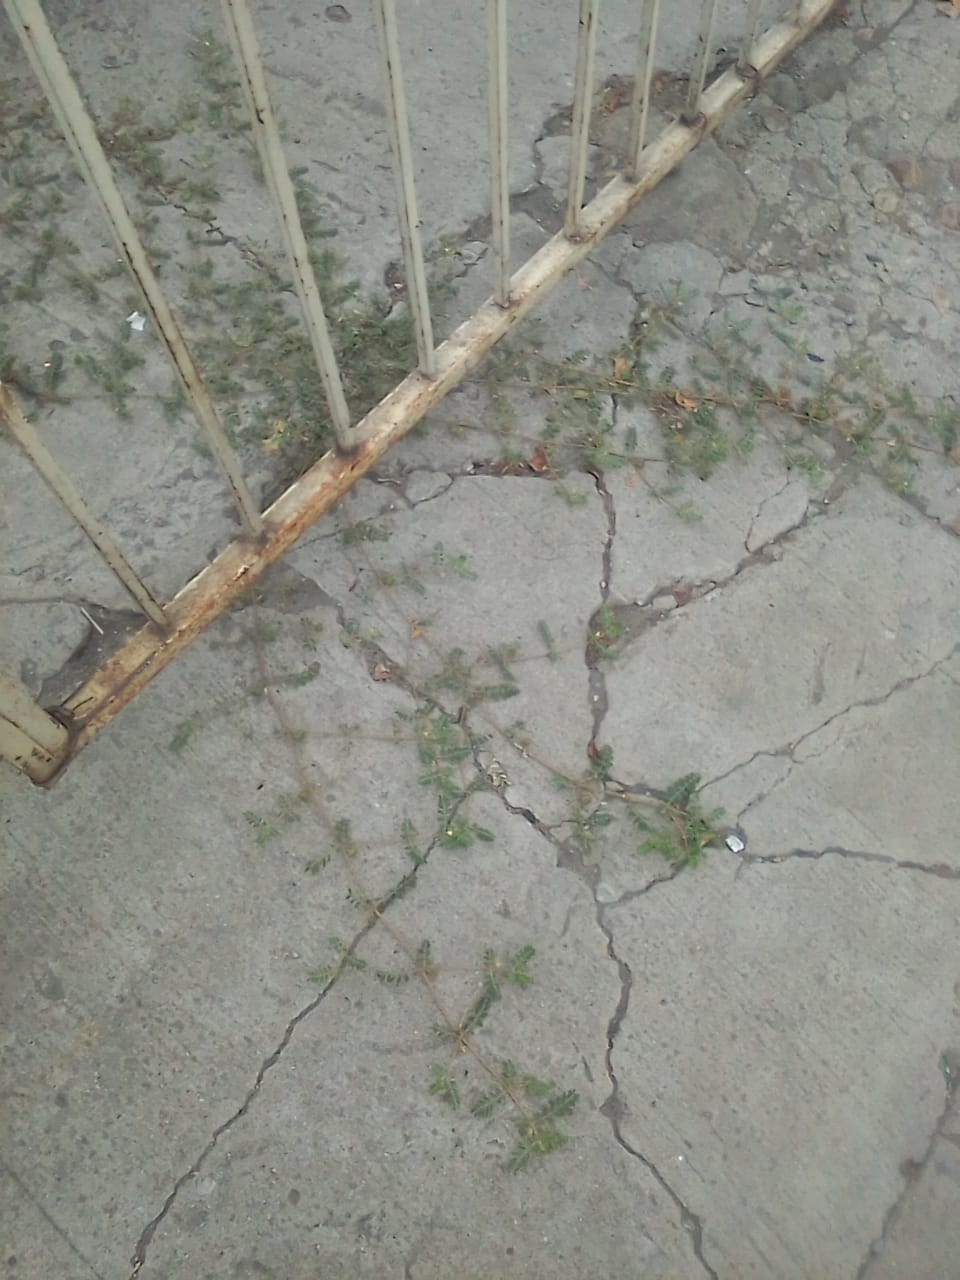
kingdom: Plantae
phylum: Tracheophyta
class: Magnoliopsida
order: Zygophyllales
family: Zygophyllaceae
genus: Tribulus
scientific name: Tribulus terrestris
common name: Puncturevine
